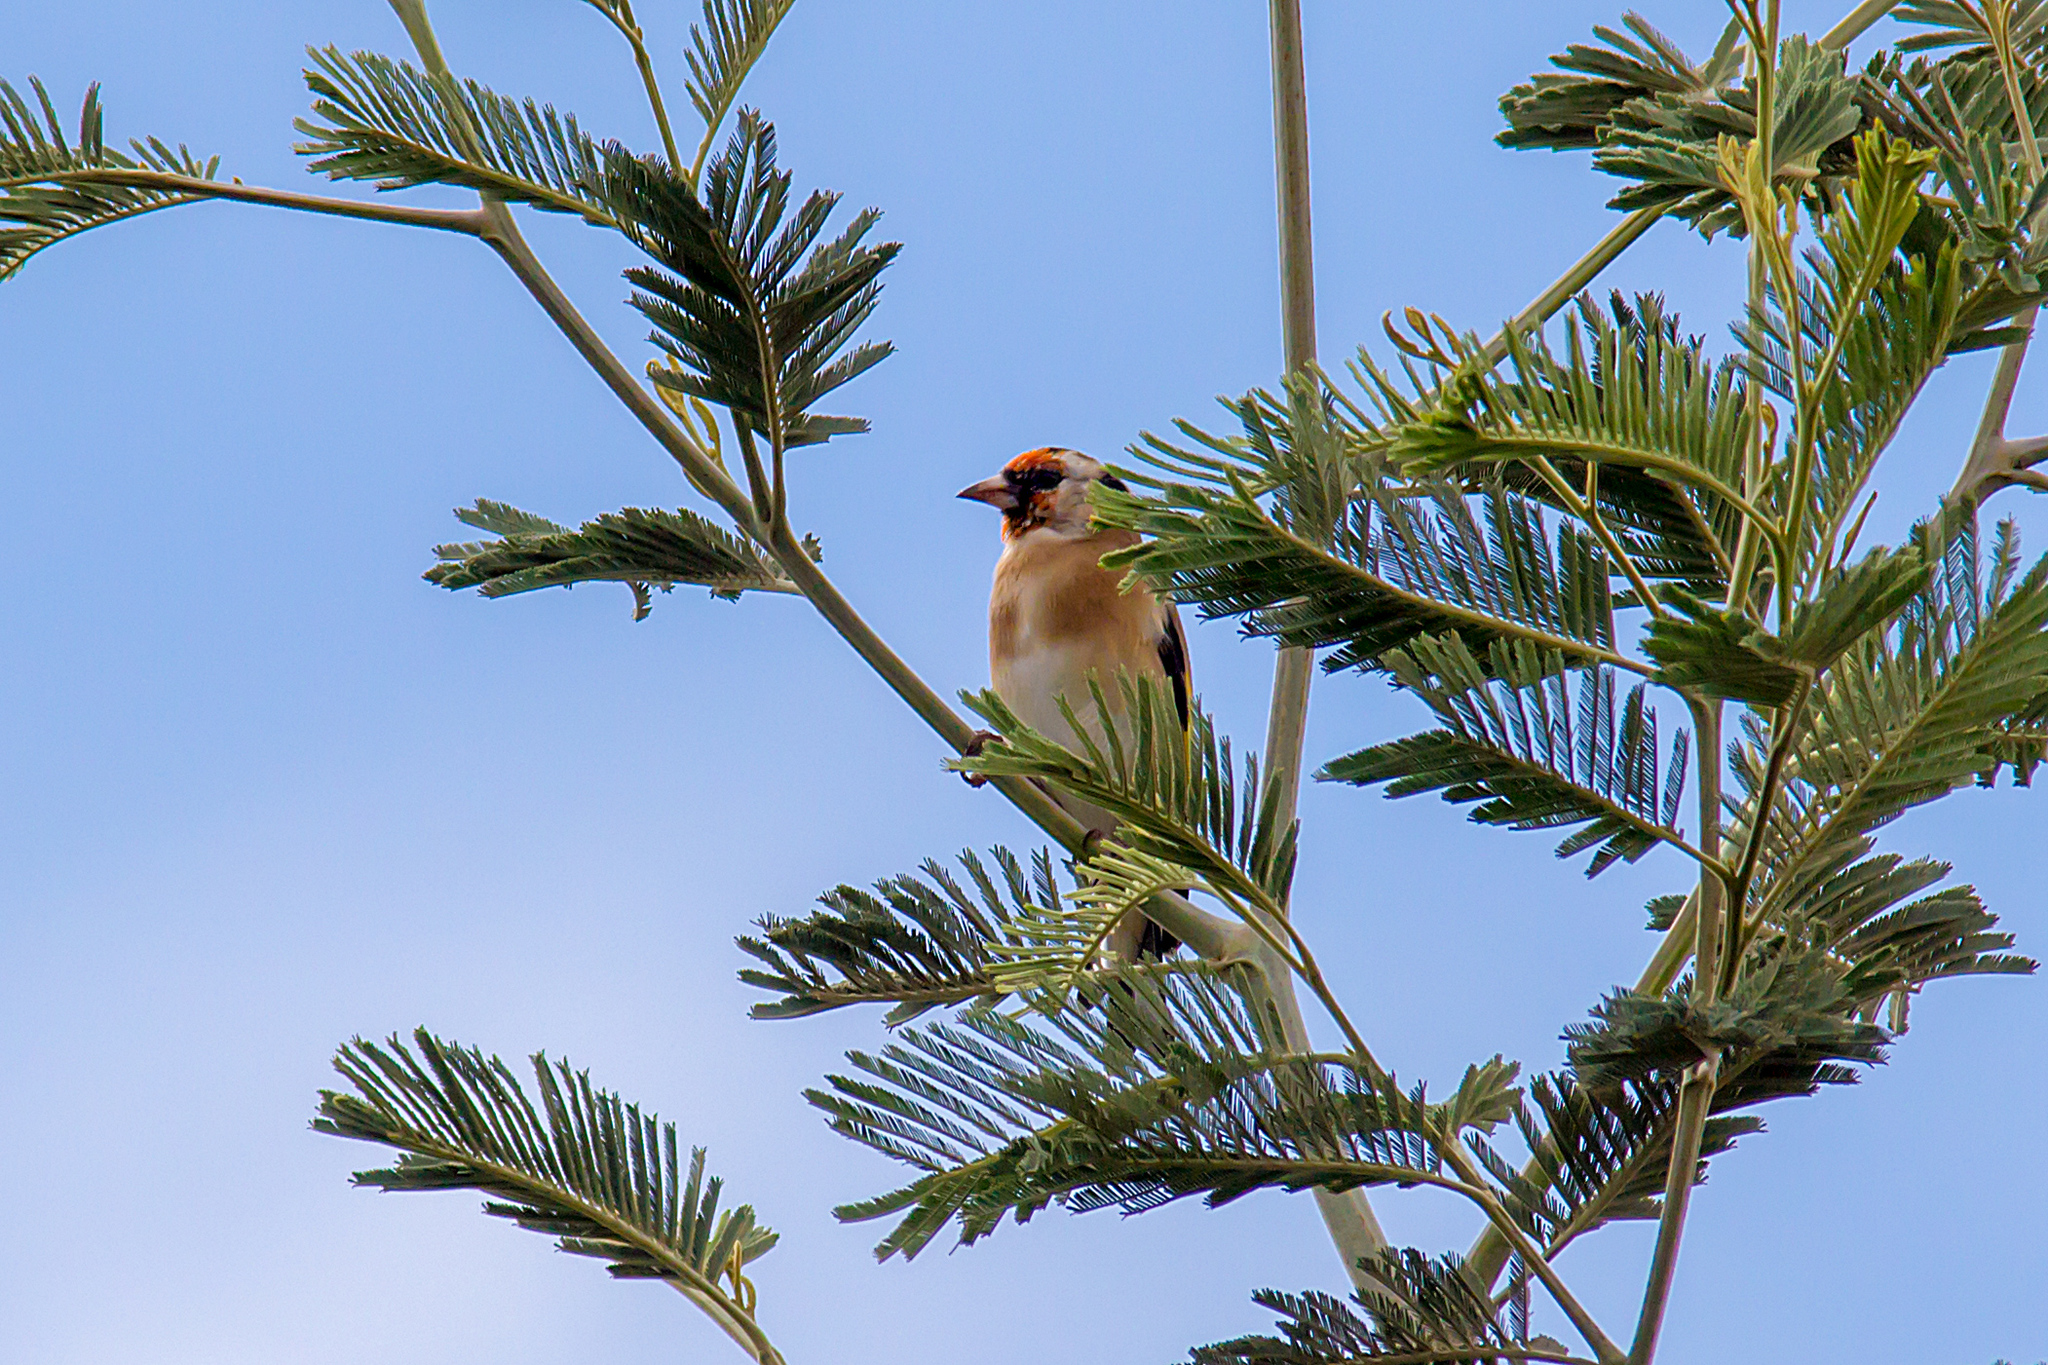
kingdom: Animalia
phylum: Chordata
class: Aves
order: Passeriformes
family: Fringillidae
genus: Carduelis
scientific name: Carduelis carduelis
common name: European goldfinch
